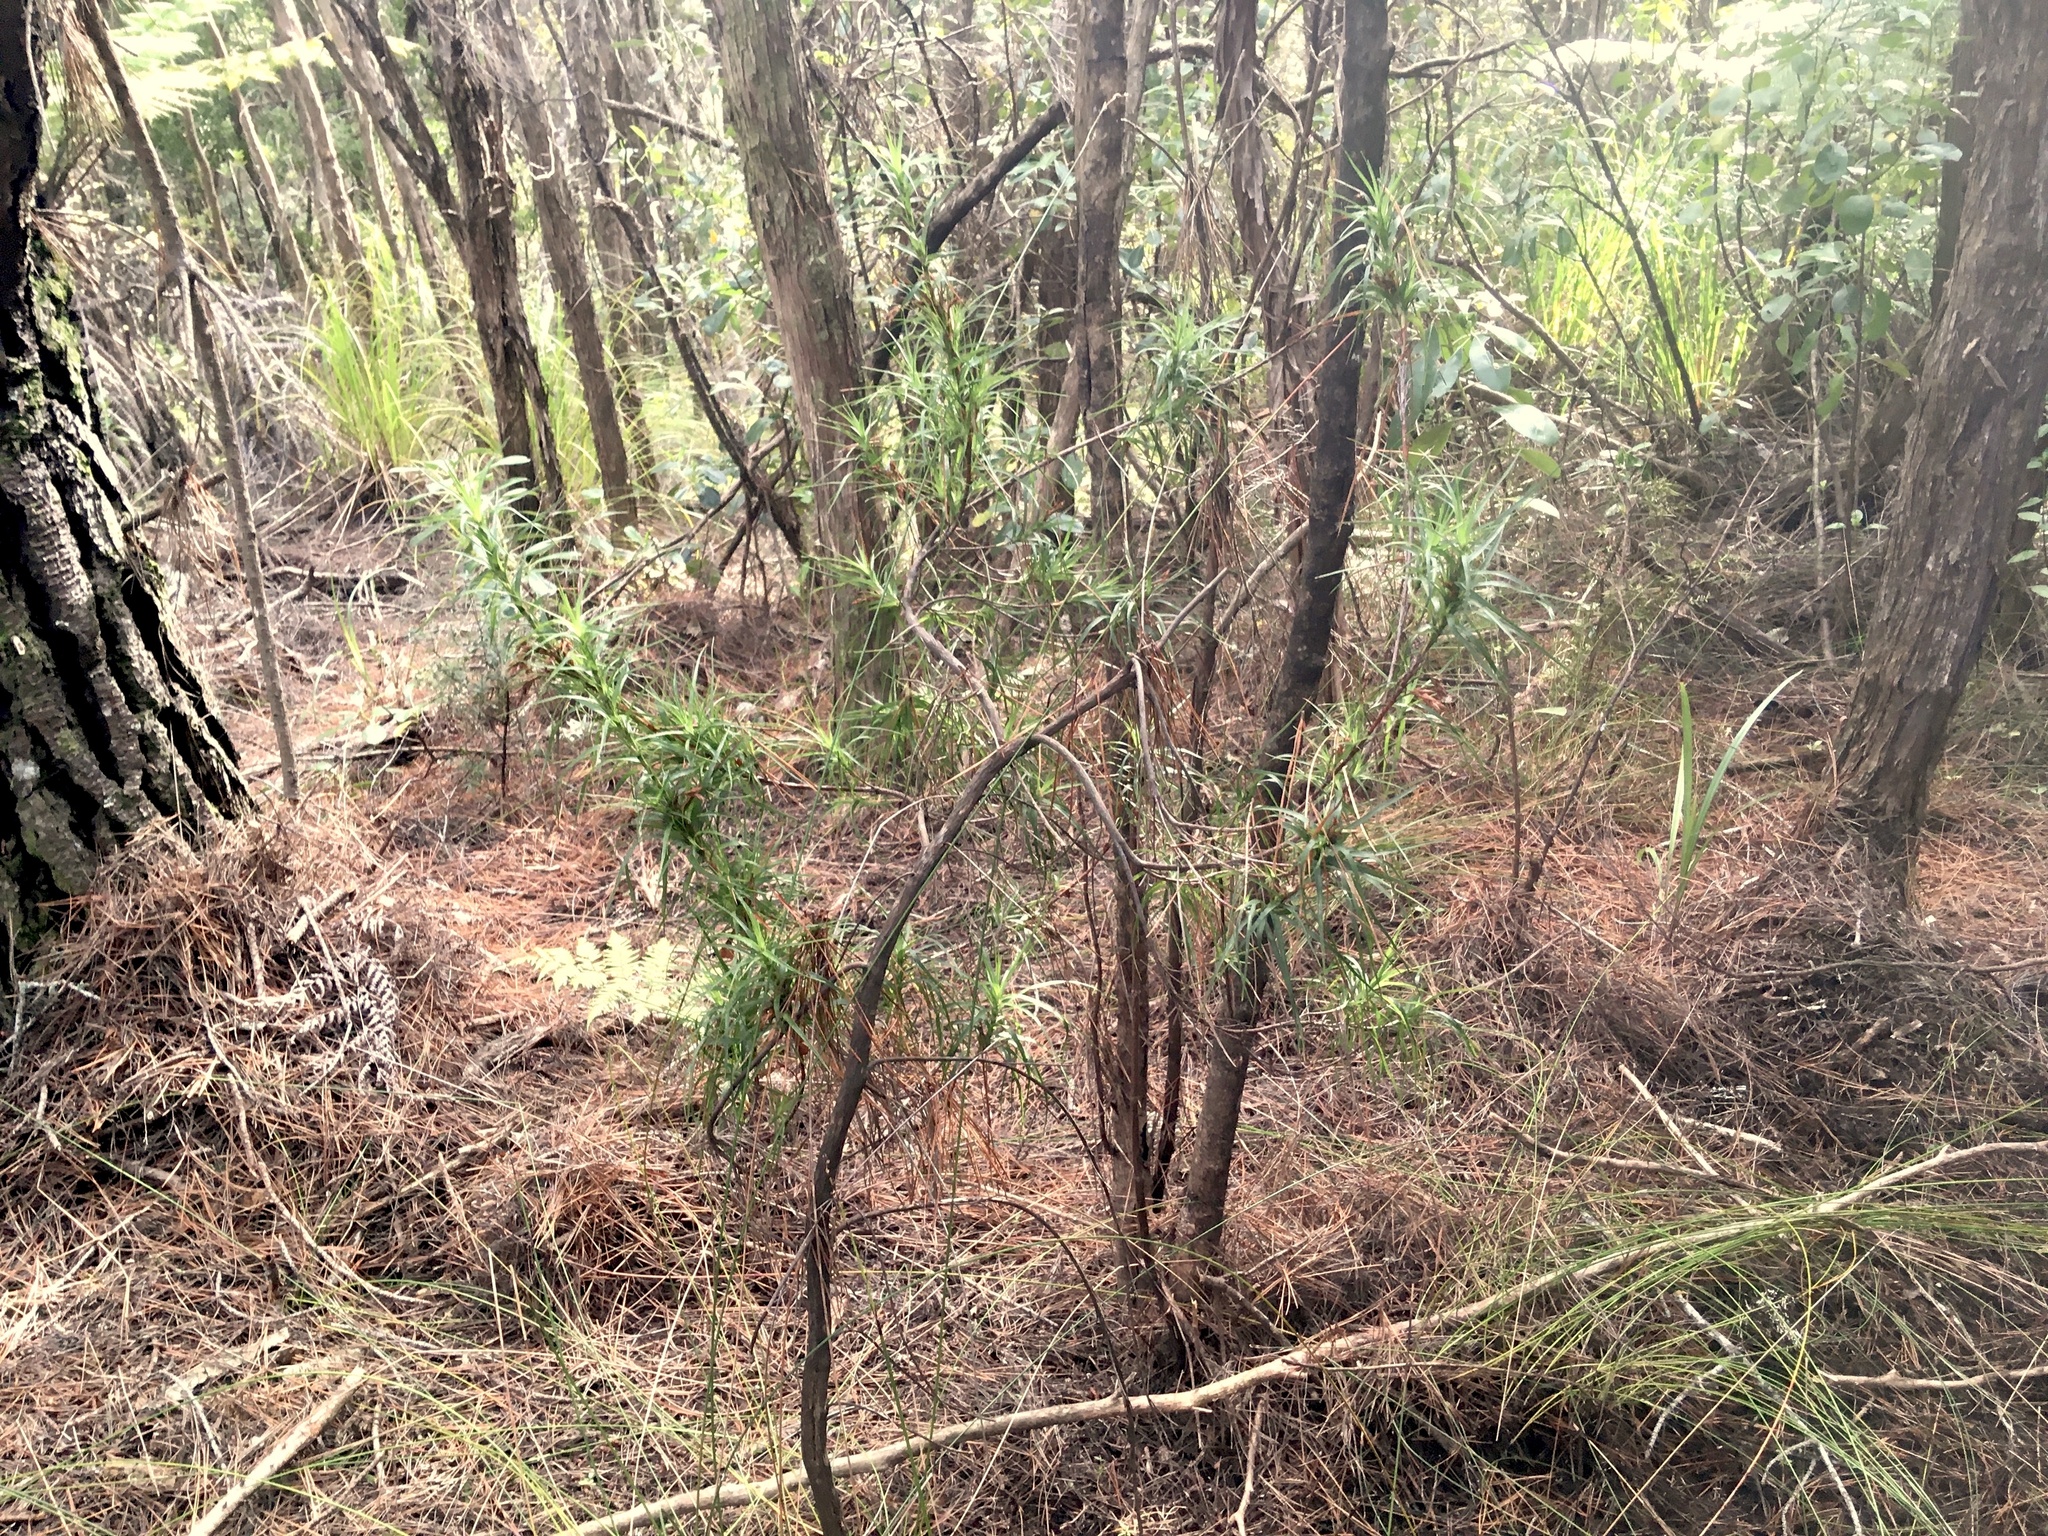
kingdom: Plantae
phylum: Tracheophyta
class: Magnoliopsida
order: Ericales
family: Ericaceae
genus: Dracophyllum
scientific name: Dracophyllum sinclairii
